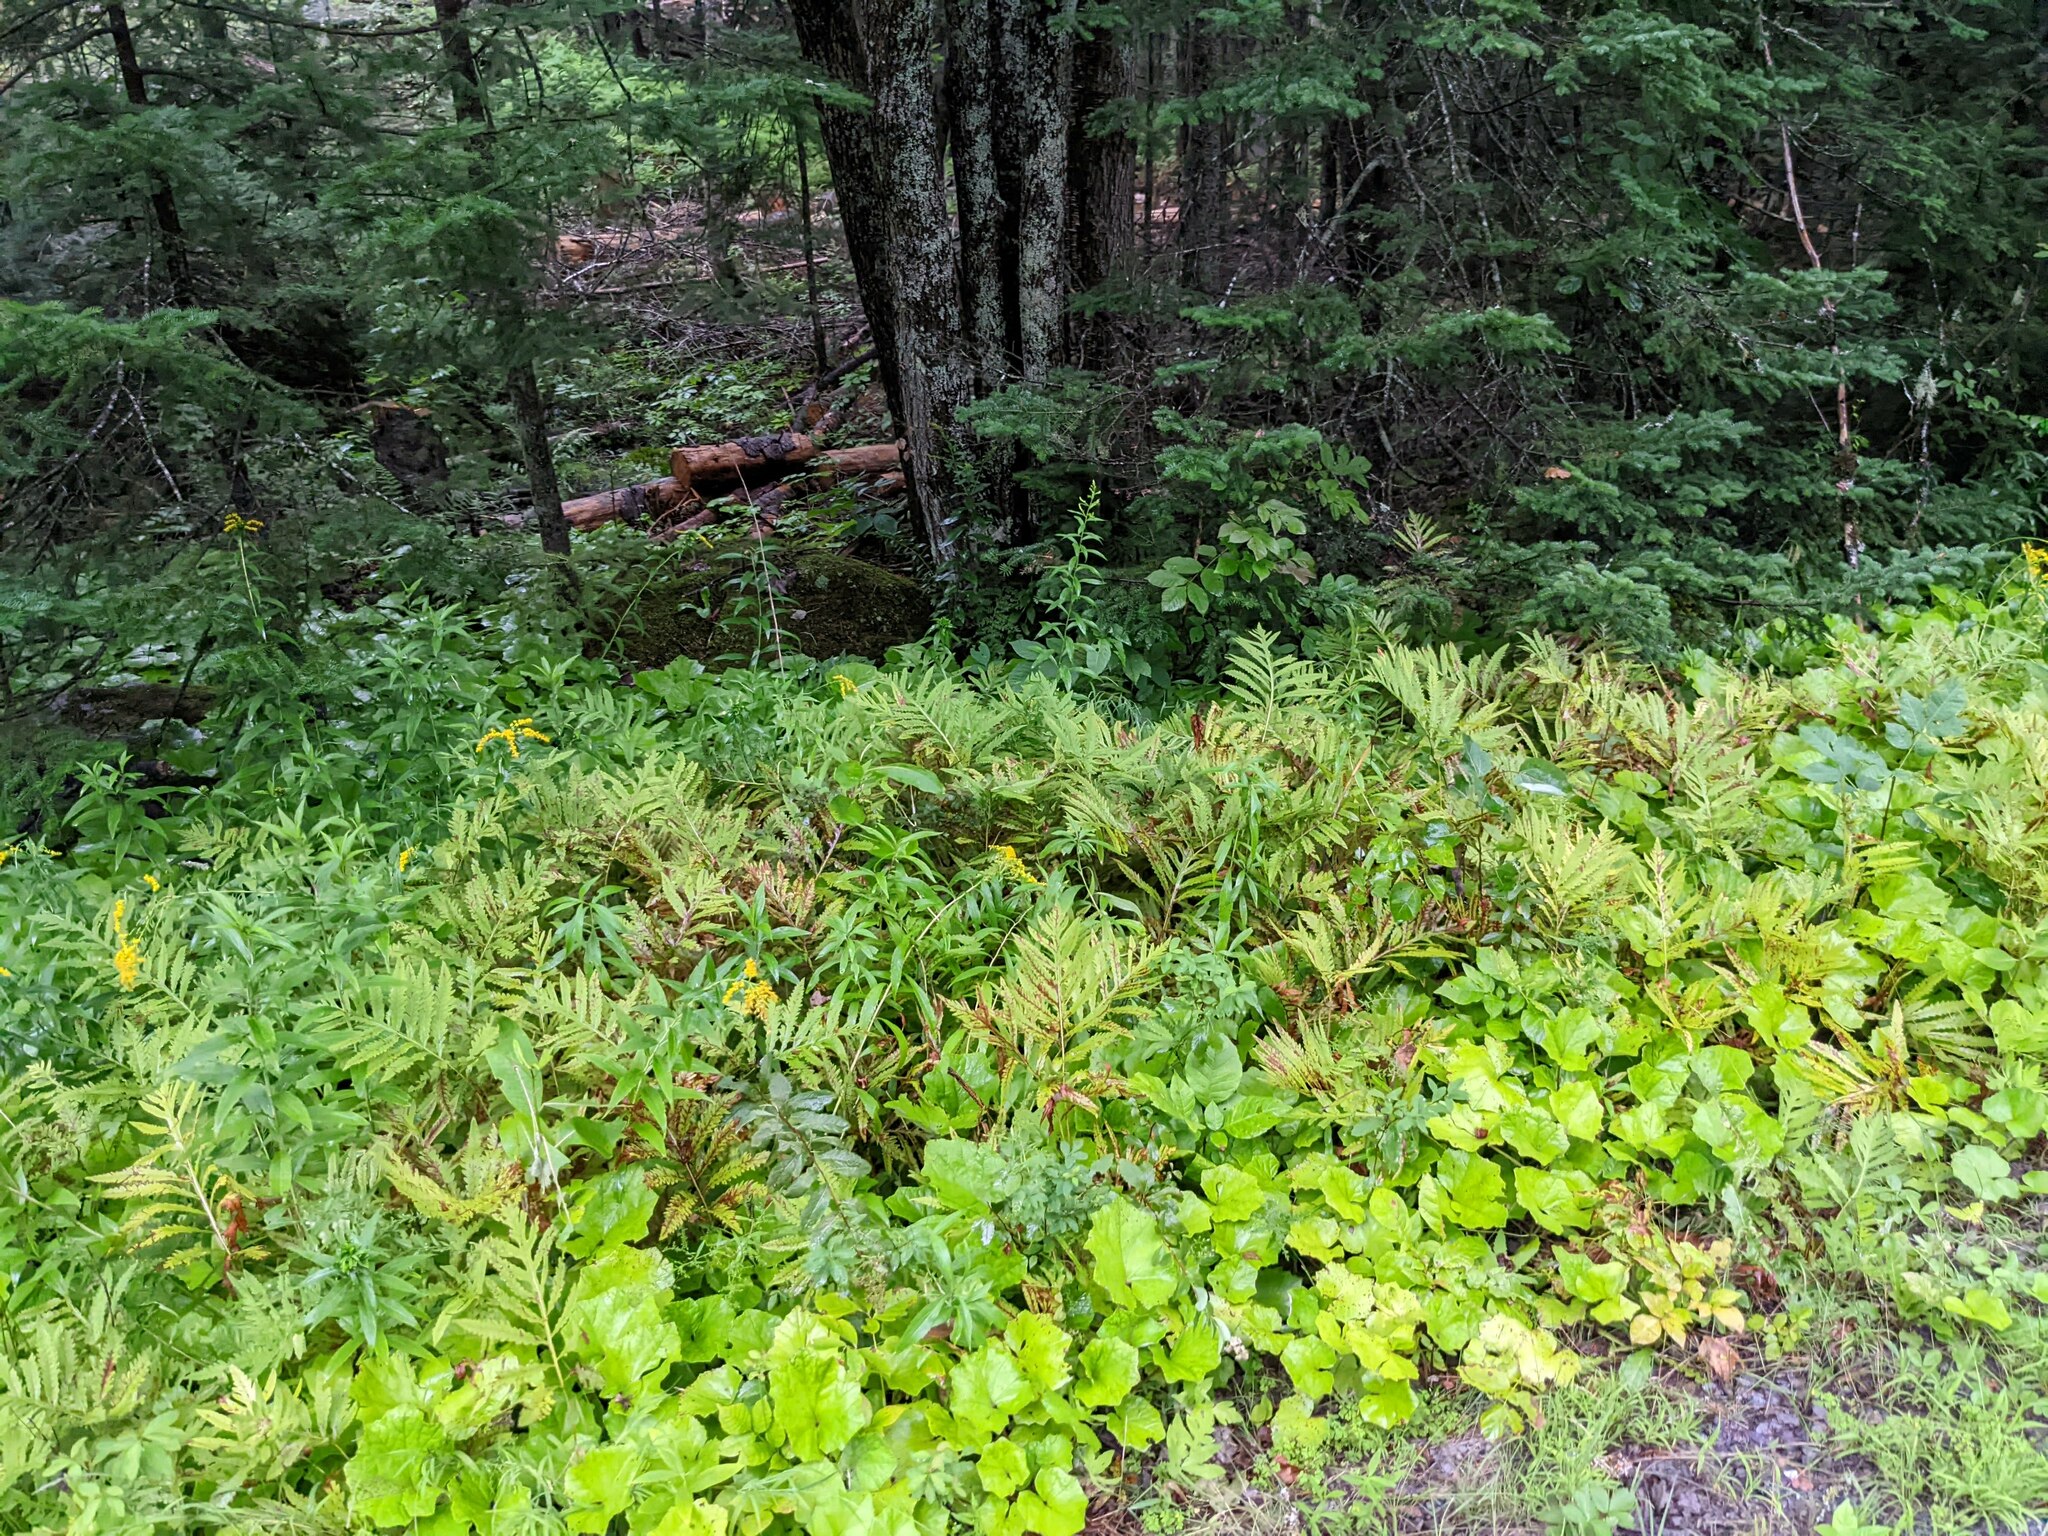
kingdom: Plantae
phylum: Tracheophyta
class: Polypodiopsida
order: Polypodiales
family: Onocleaceae
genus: Onoclea
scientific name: Onoclea sensibilis
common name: Sensitive fern
